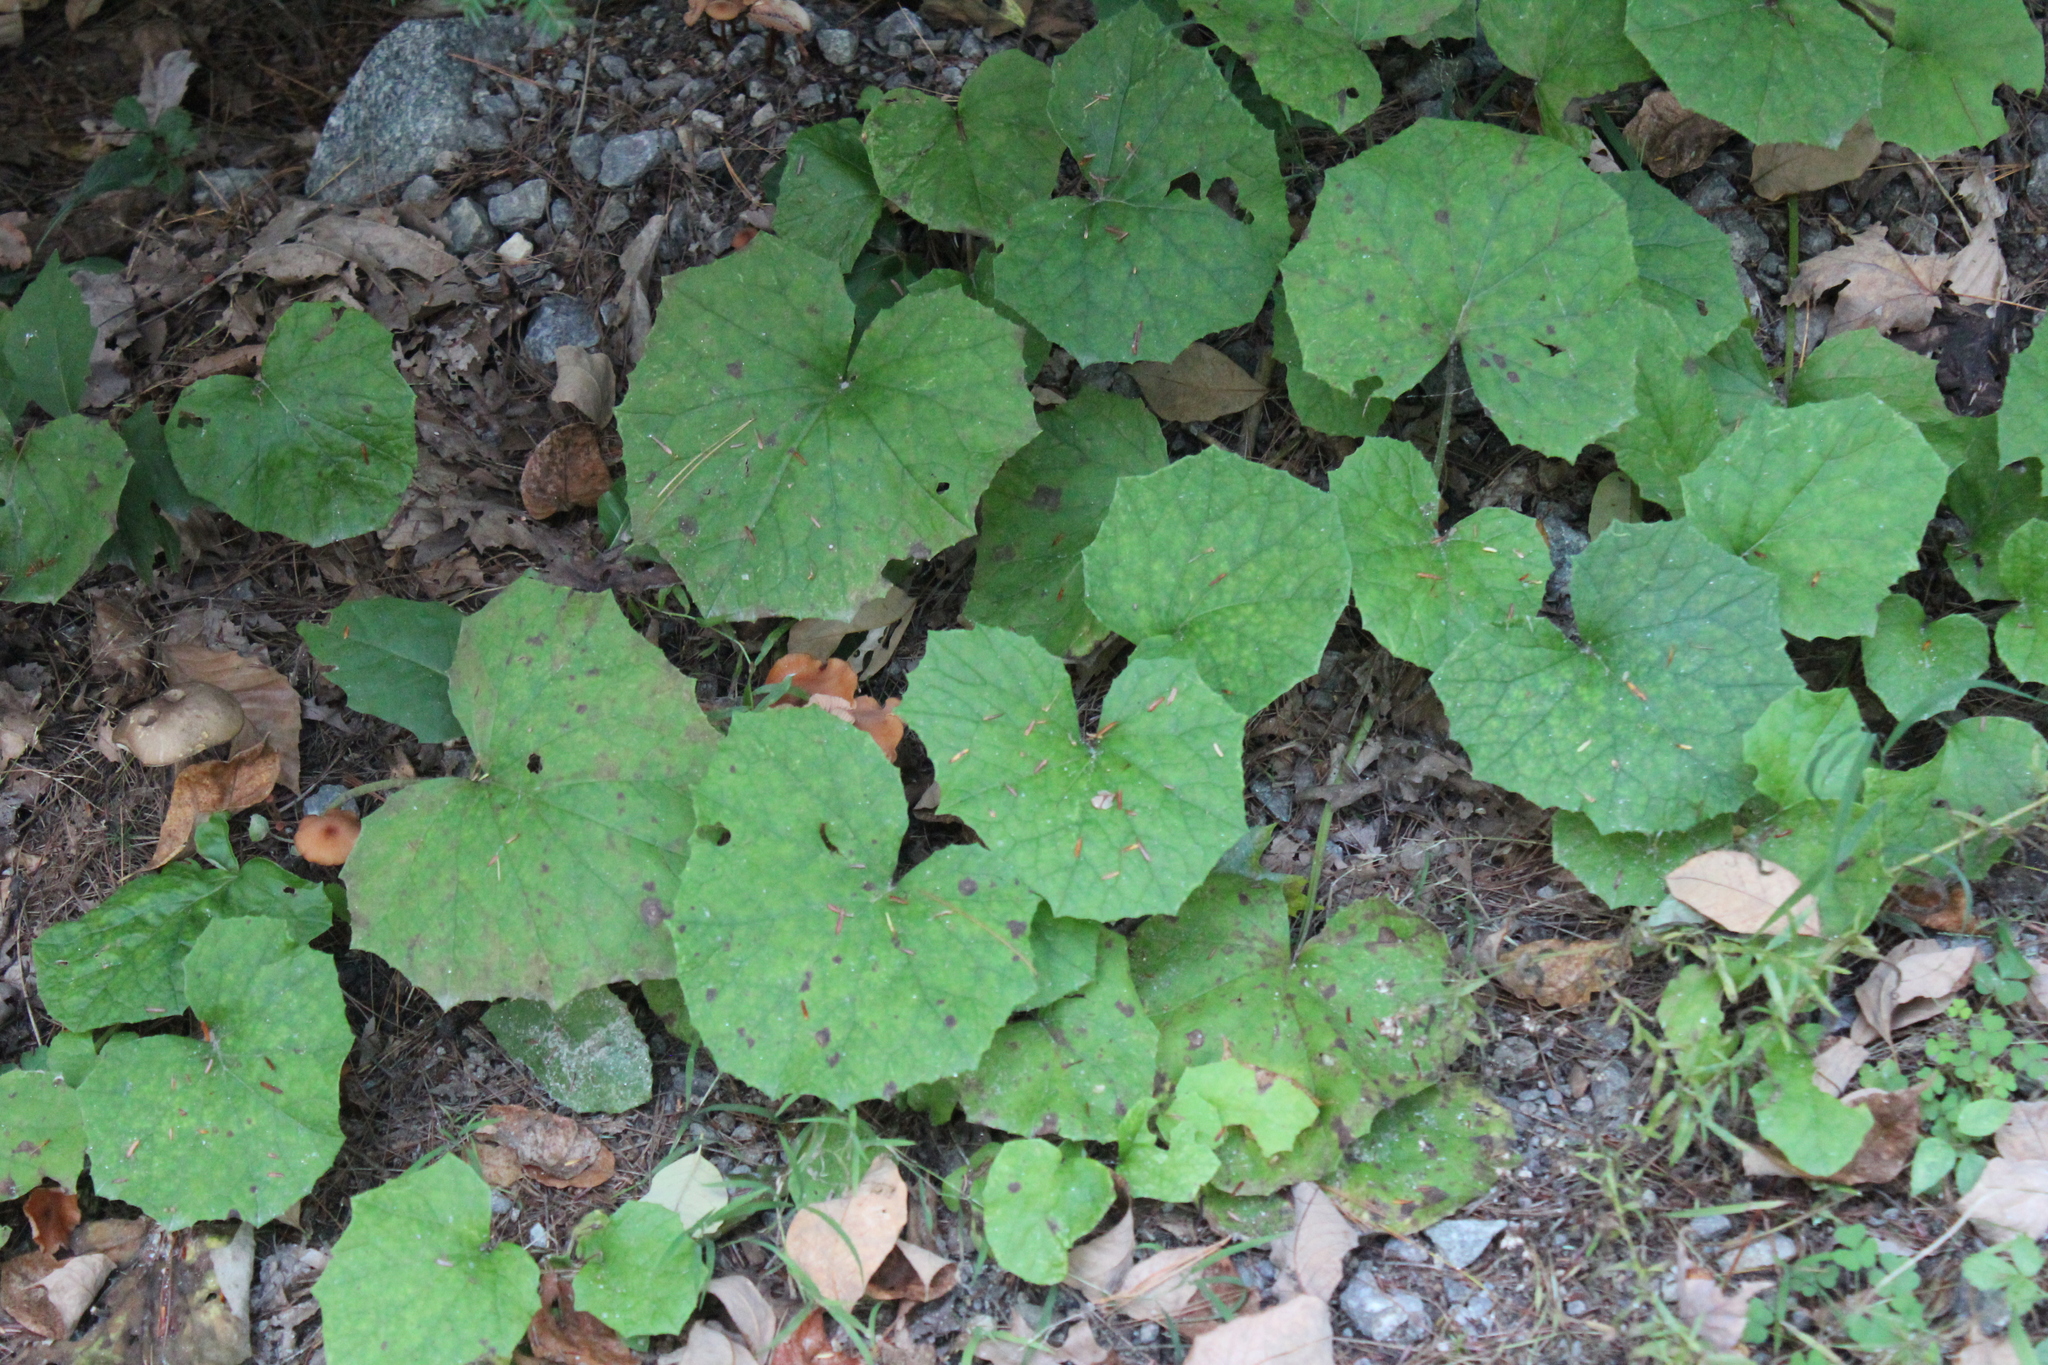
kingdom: Plantae
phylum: Tracheophyta
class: Magnoliopsida
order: Asterales
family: Asteraceae
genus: Tussilago
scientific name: Tussilago farfara
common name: Coltsfoot
